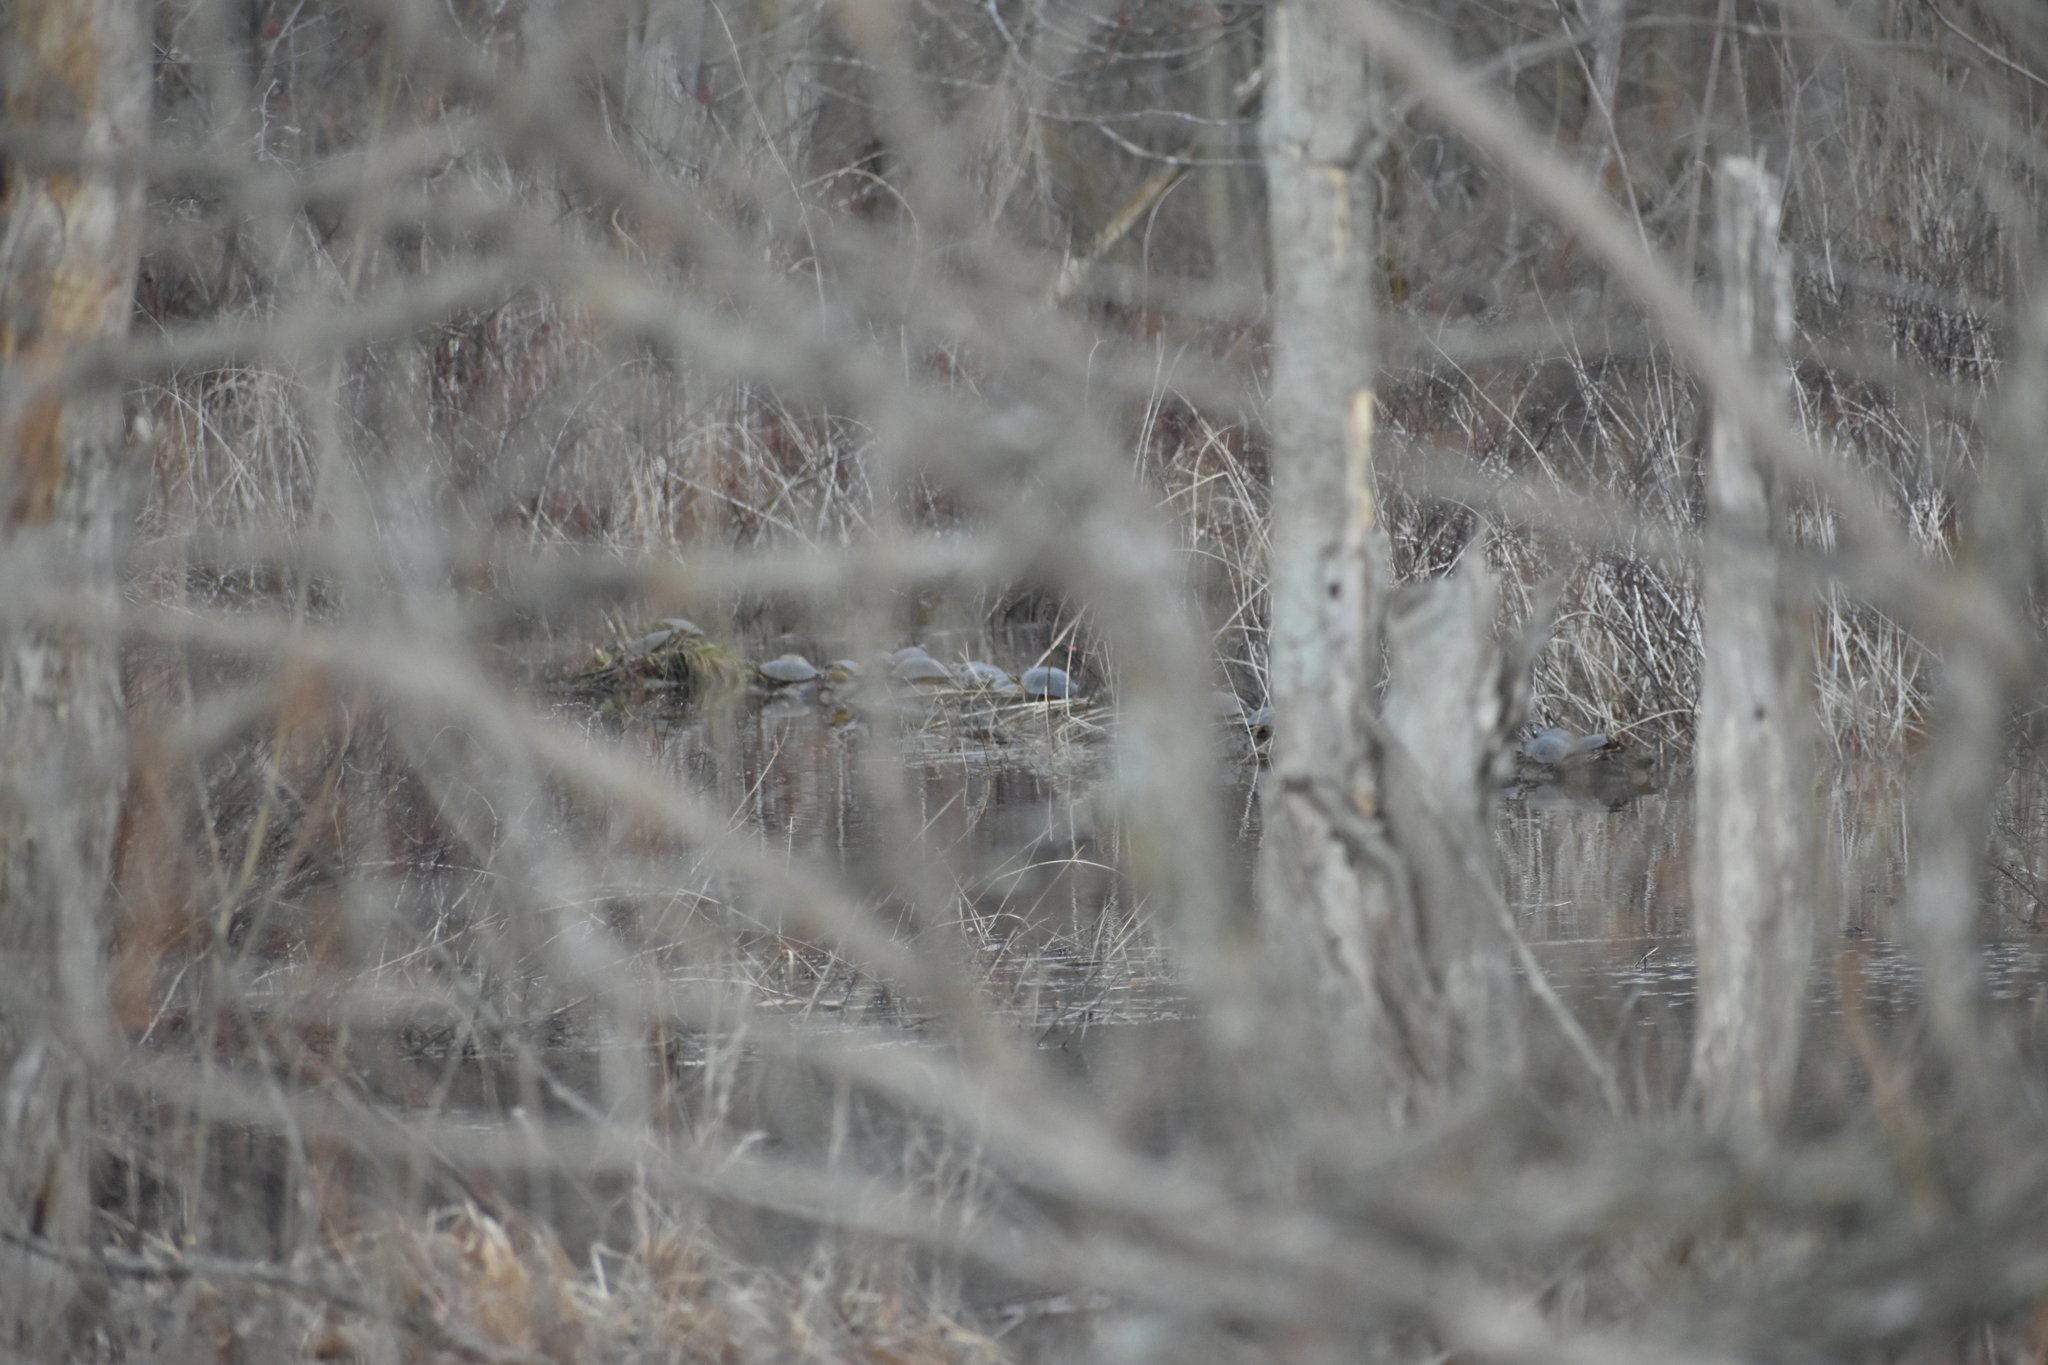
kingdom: Animalia
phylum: Chordata
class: Testudines
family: Emydidae
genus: Chrysemys
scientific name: Chrysemys picta
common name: Painted turtle
